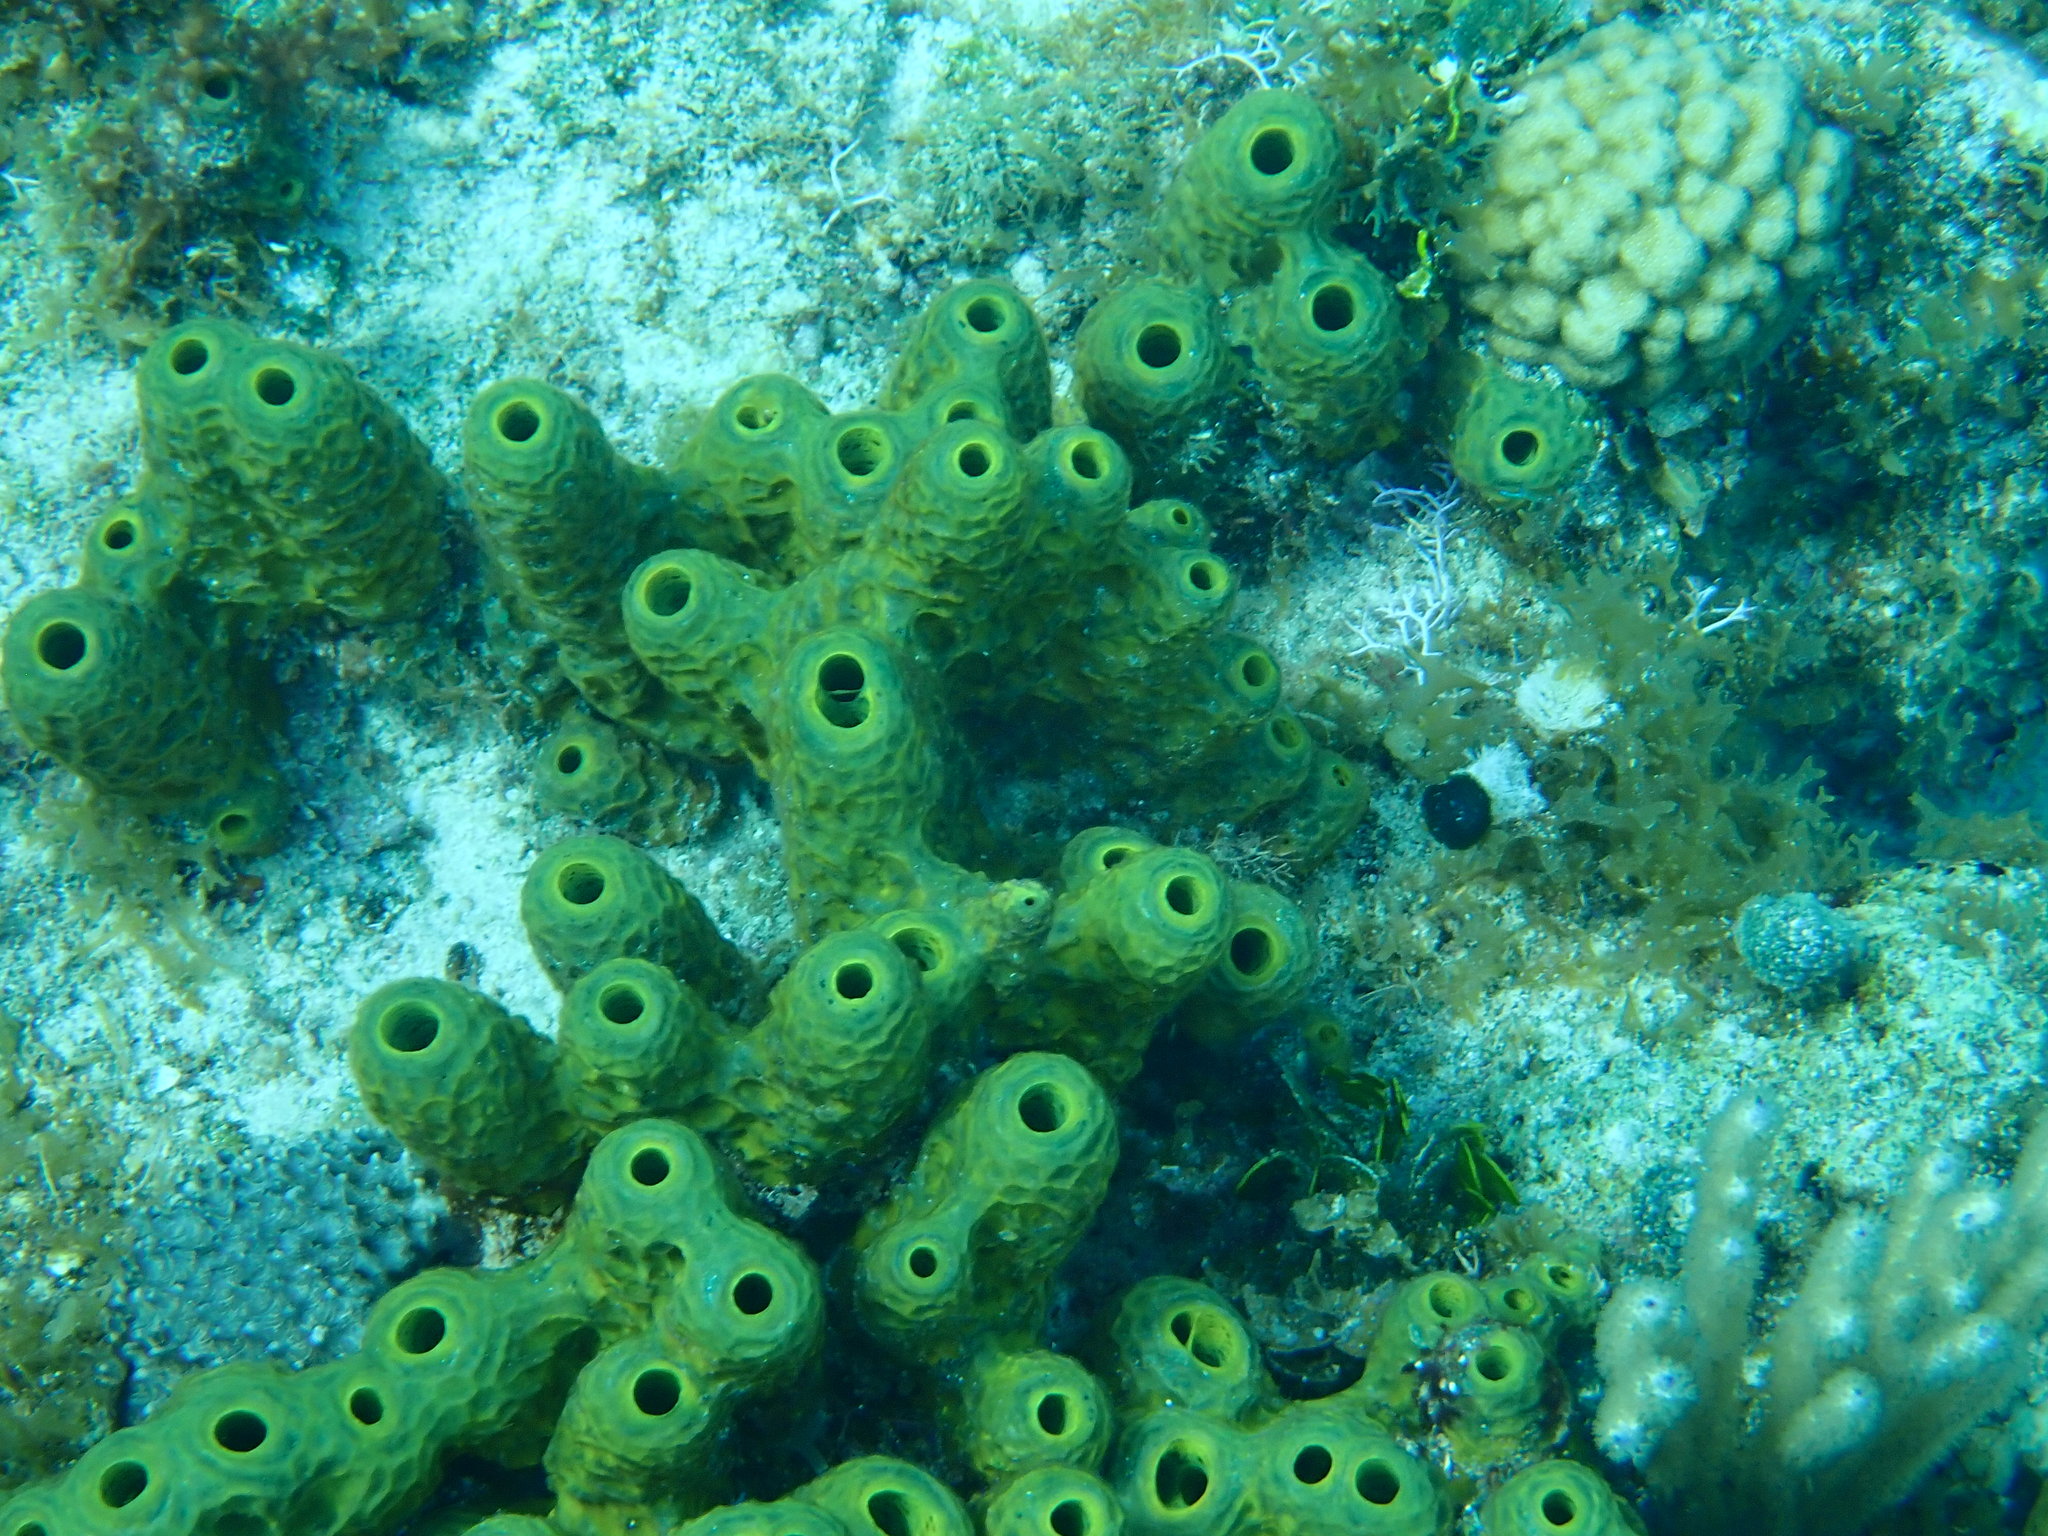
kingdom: Animalia
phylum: Porifera
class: Demospongiae
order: Verongiida
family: Aplysinidae
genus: Verongula
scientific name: Verongula rigida
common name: Pitted sponge
